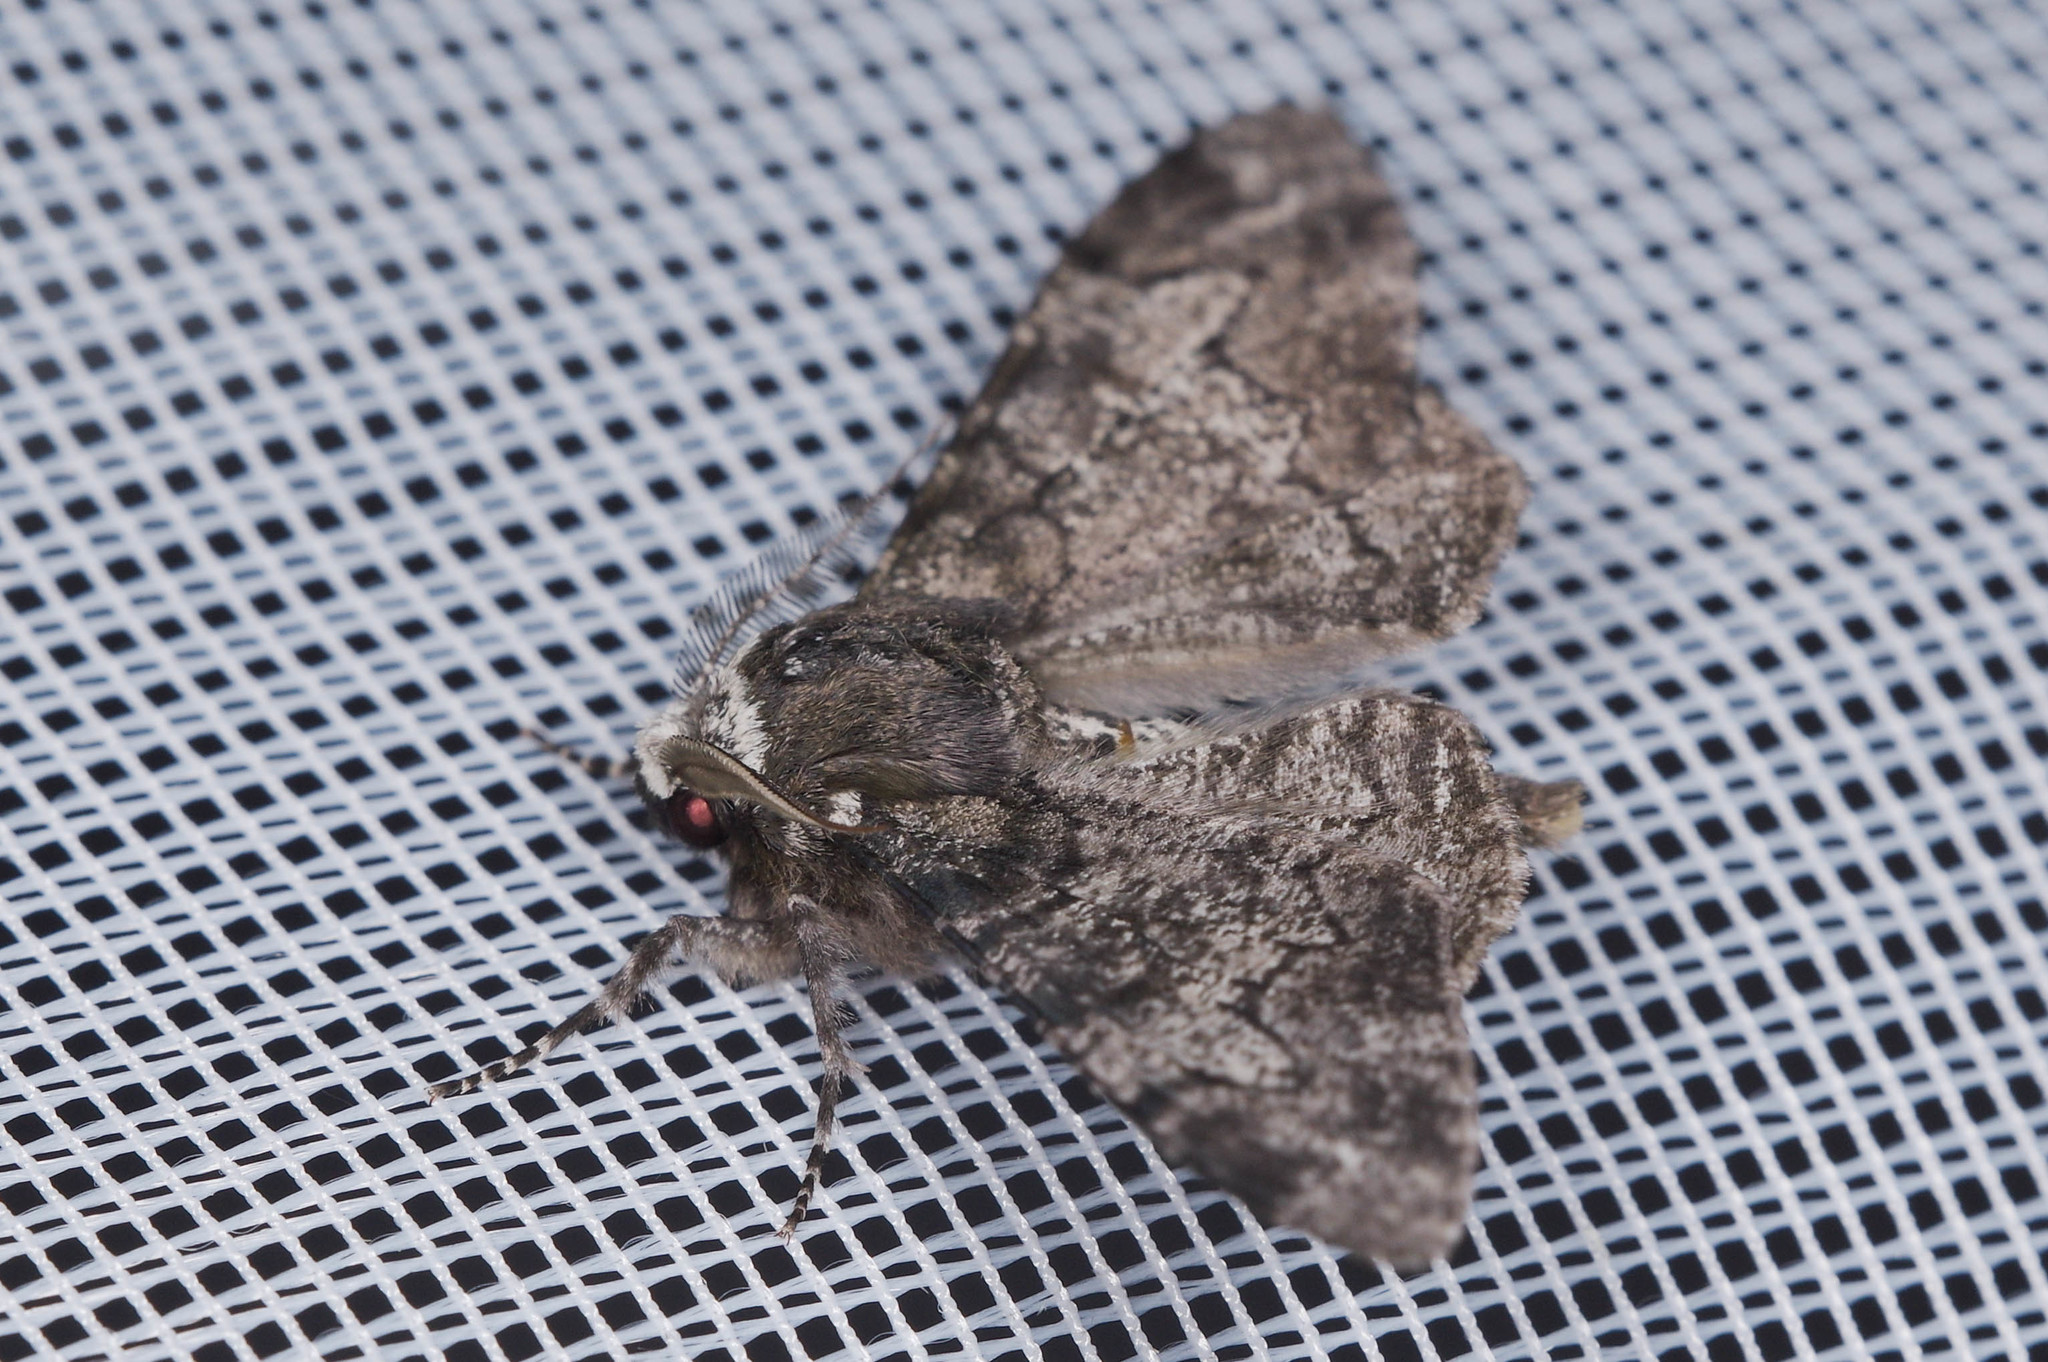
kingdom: Animalia
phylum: Arthropoda
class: Insecta
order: Lepidoptera
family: Geometridae
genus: Biston
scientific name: Biston betularia
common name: Peppered moth
